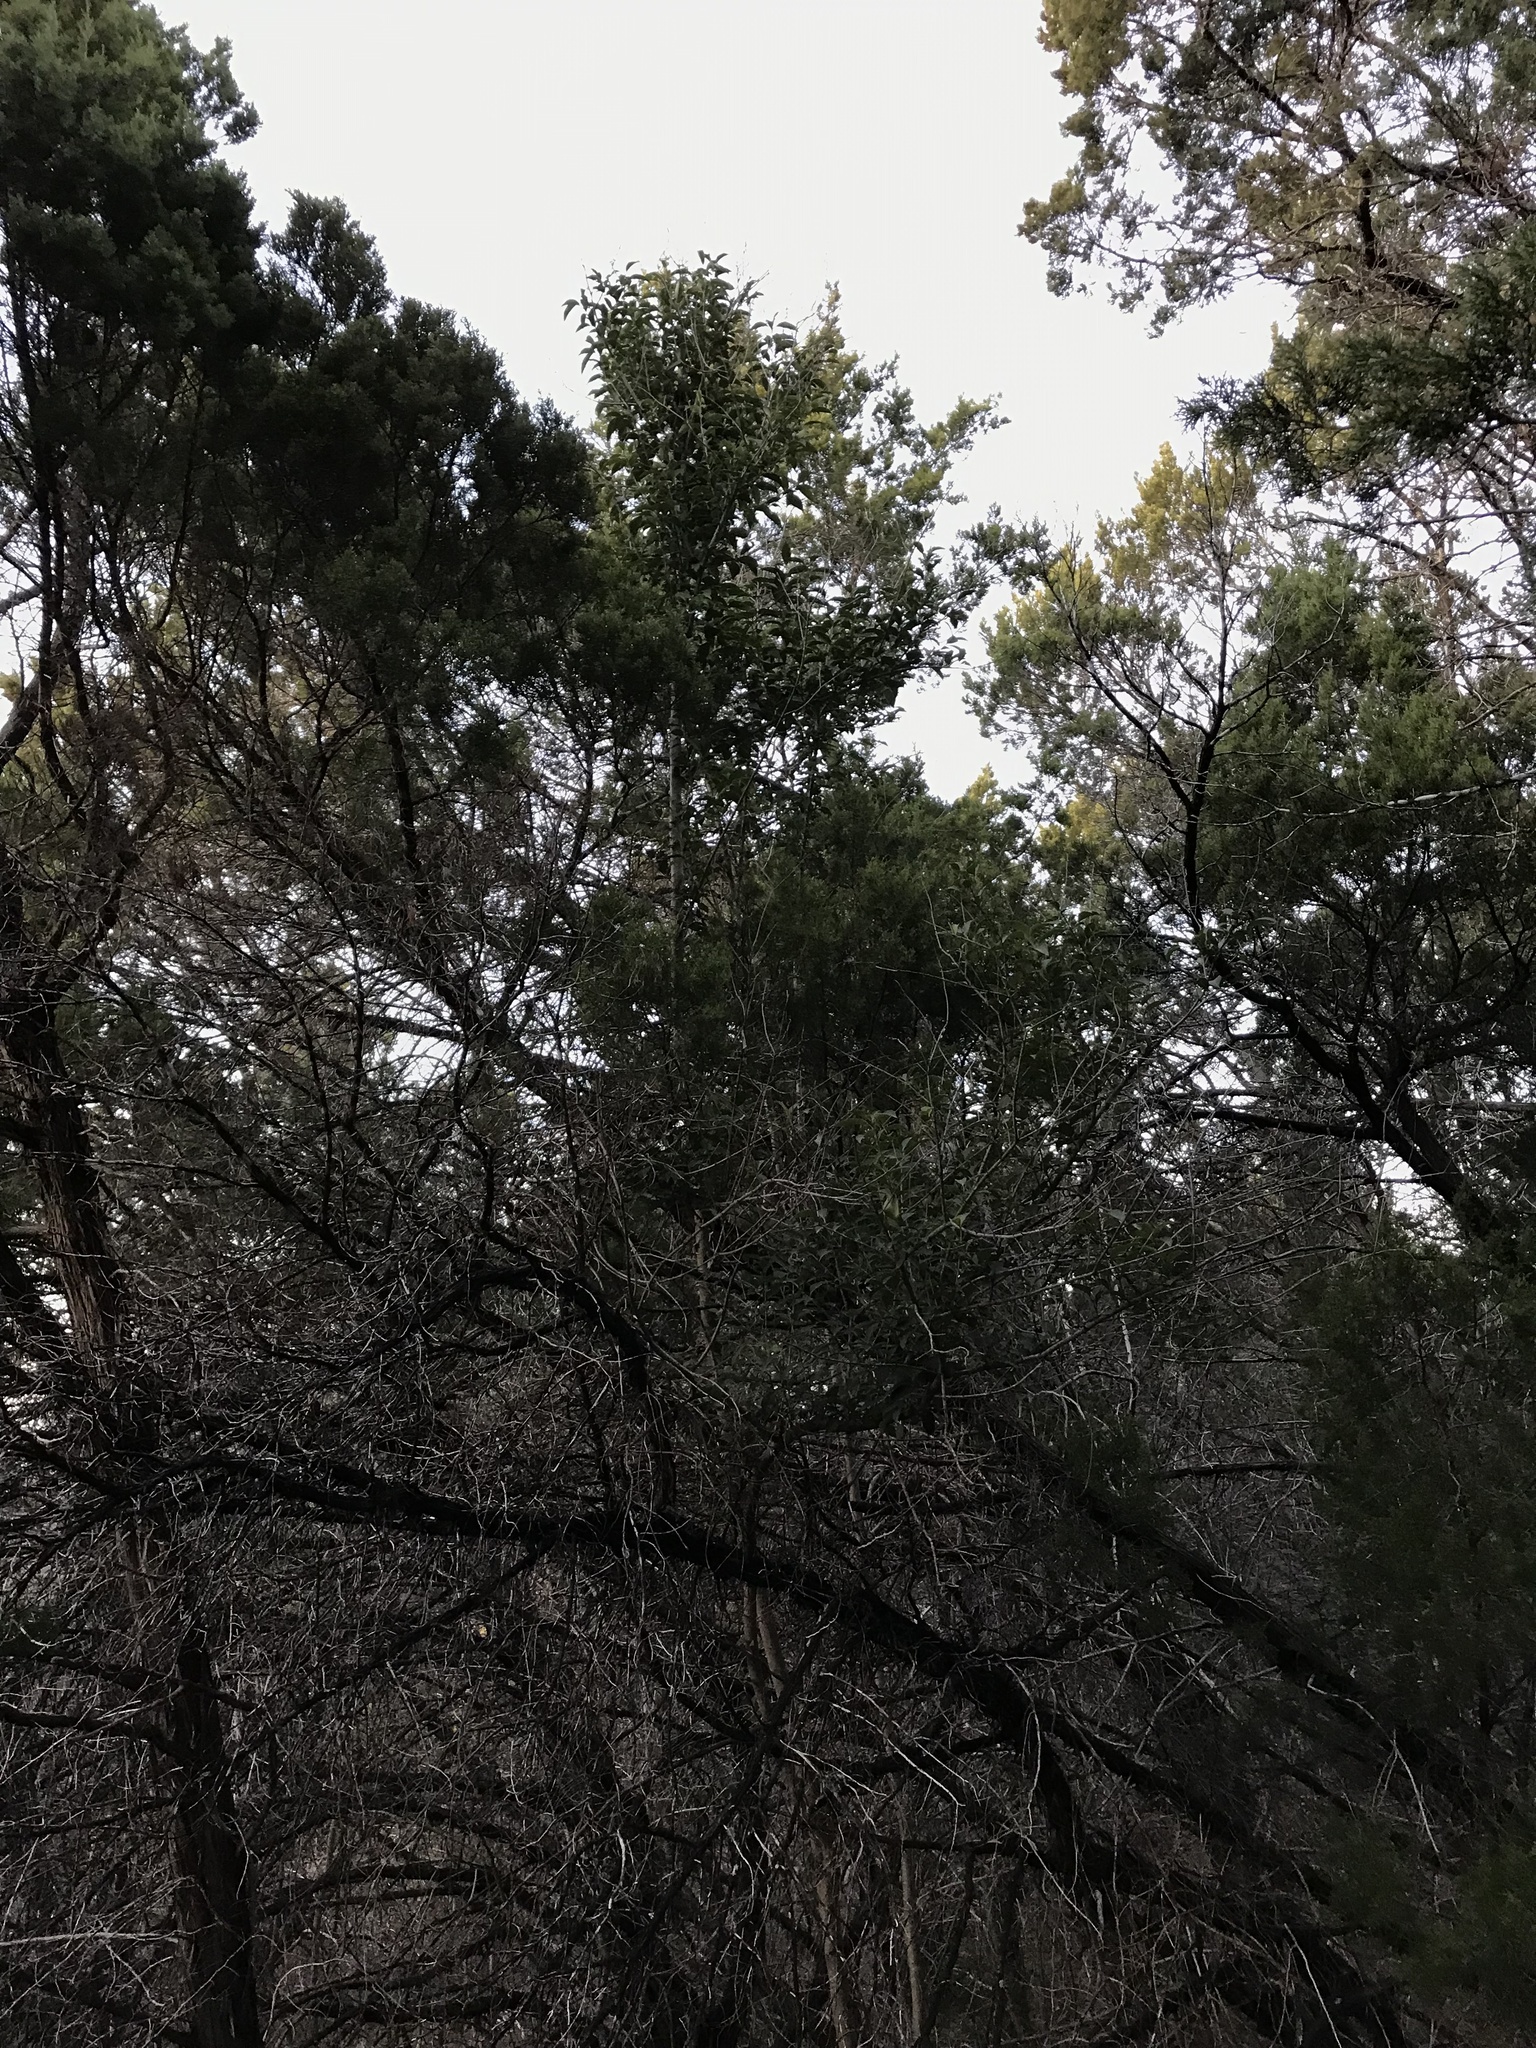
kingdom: Plantae
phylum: Tracheophyta
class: Magnoliopsida
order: Lamiales
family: Oleaceae
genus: Ligustrum
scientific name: Ligustrum lucidum
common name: Glossy privet
